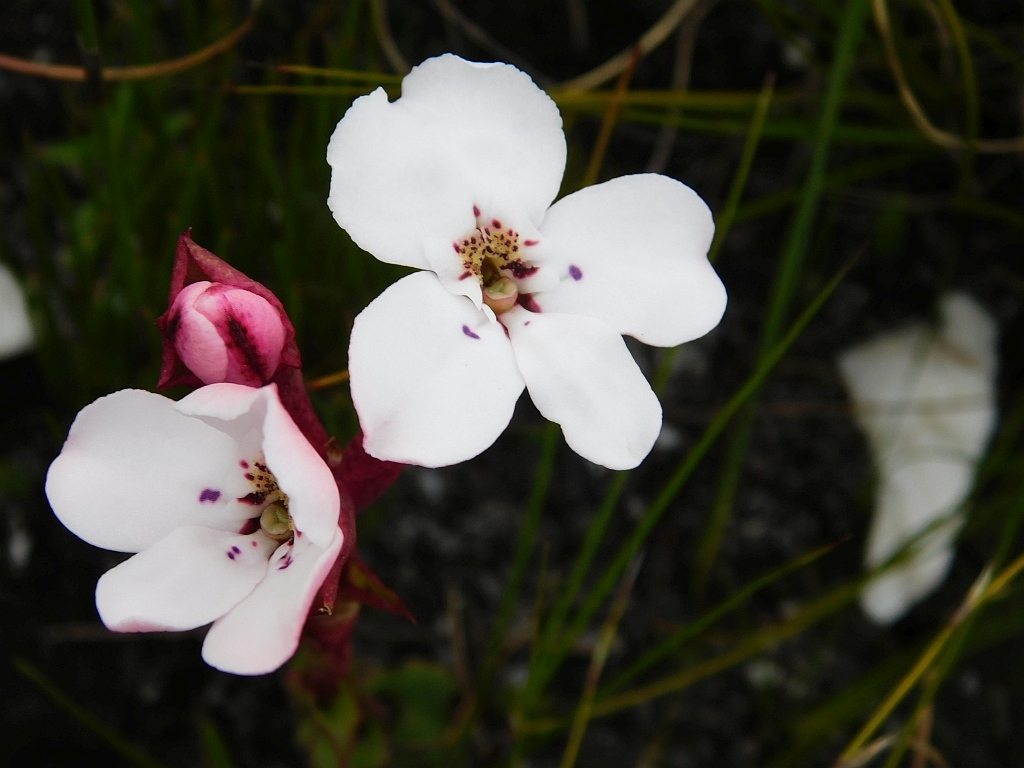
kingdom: Plantae
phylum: Tracheophyta
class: Liliopsida
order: Asparagales
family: Orchidaceae
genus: Disa
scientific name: Disa fasciata
